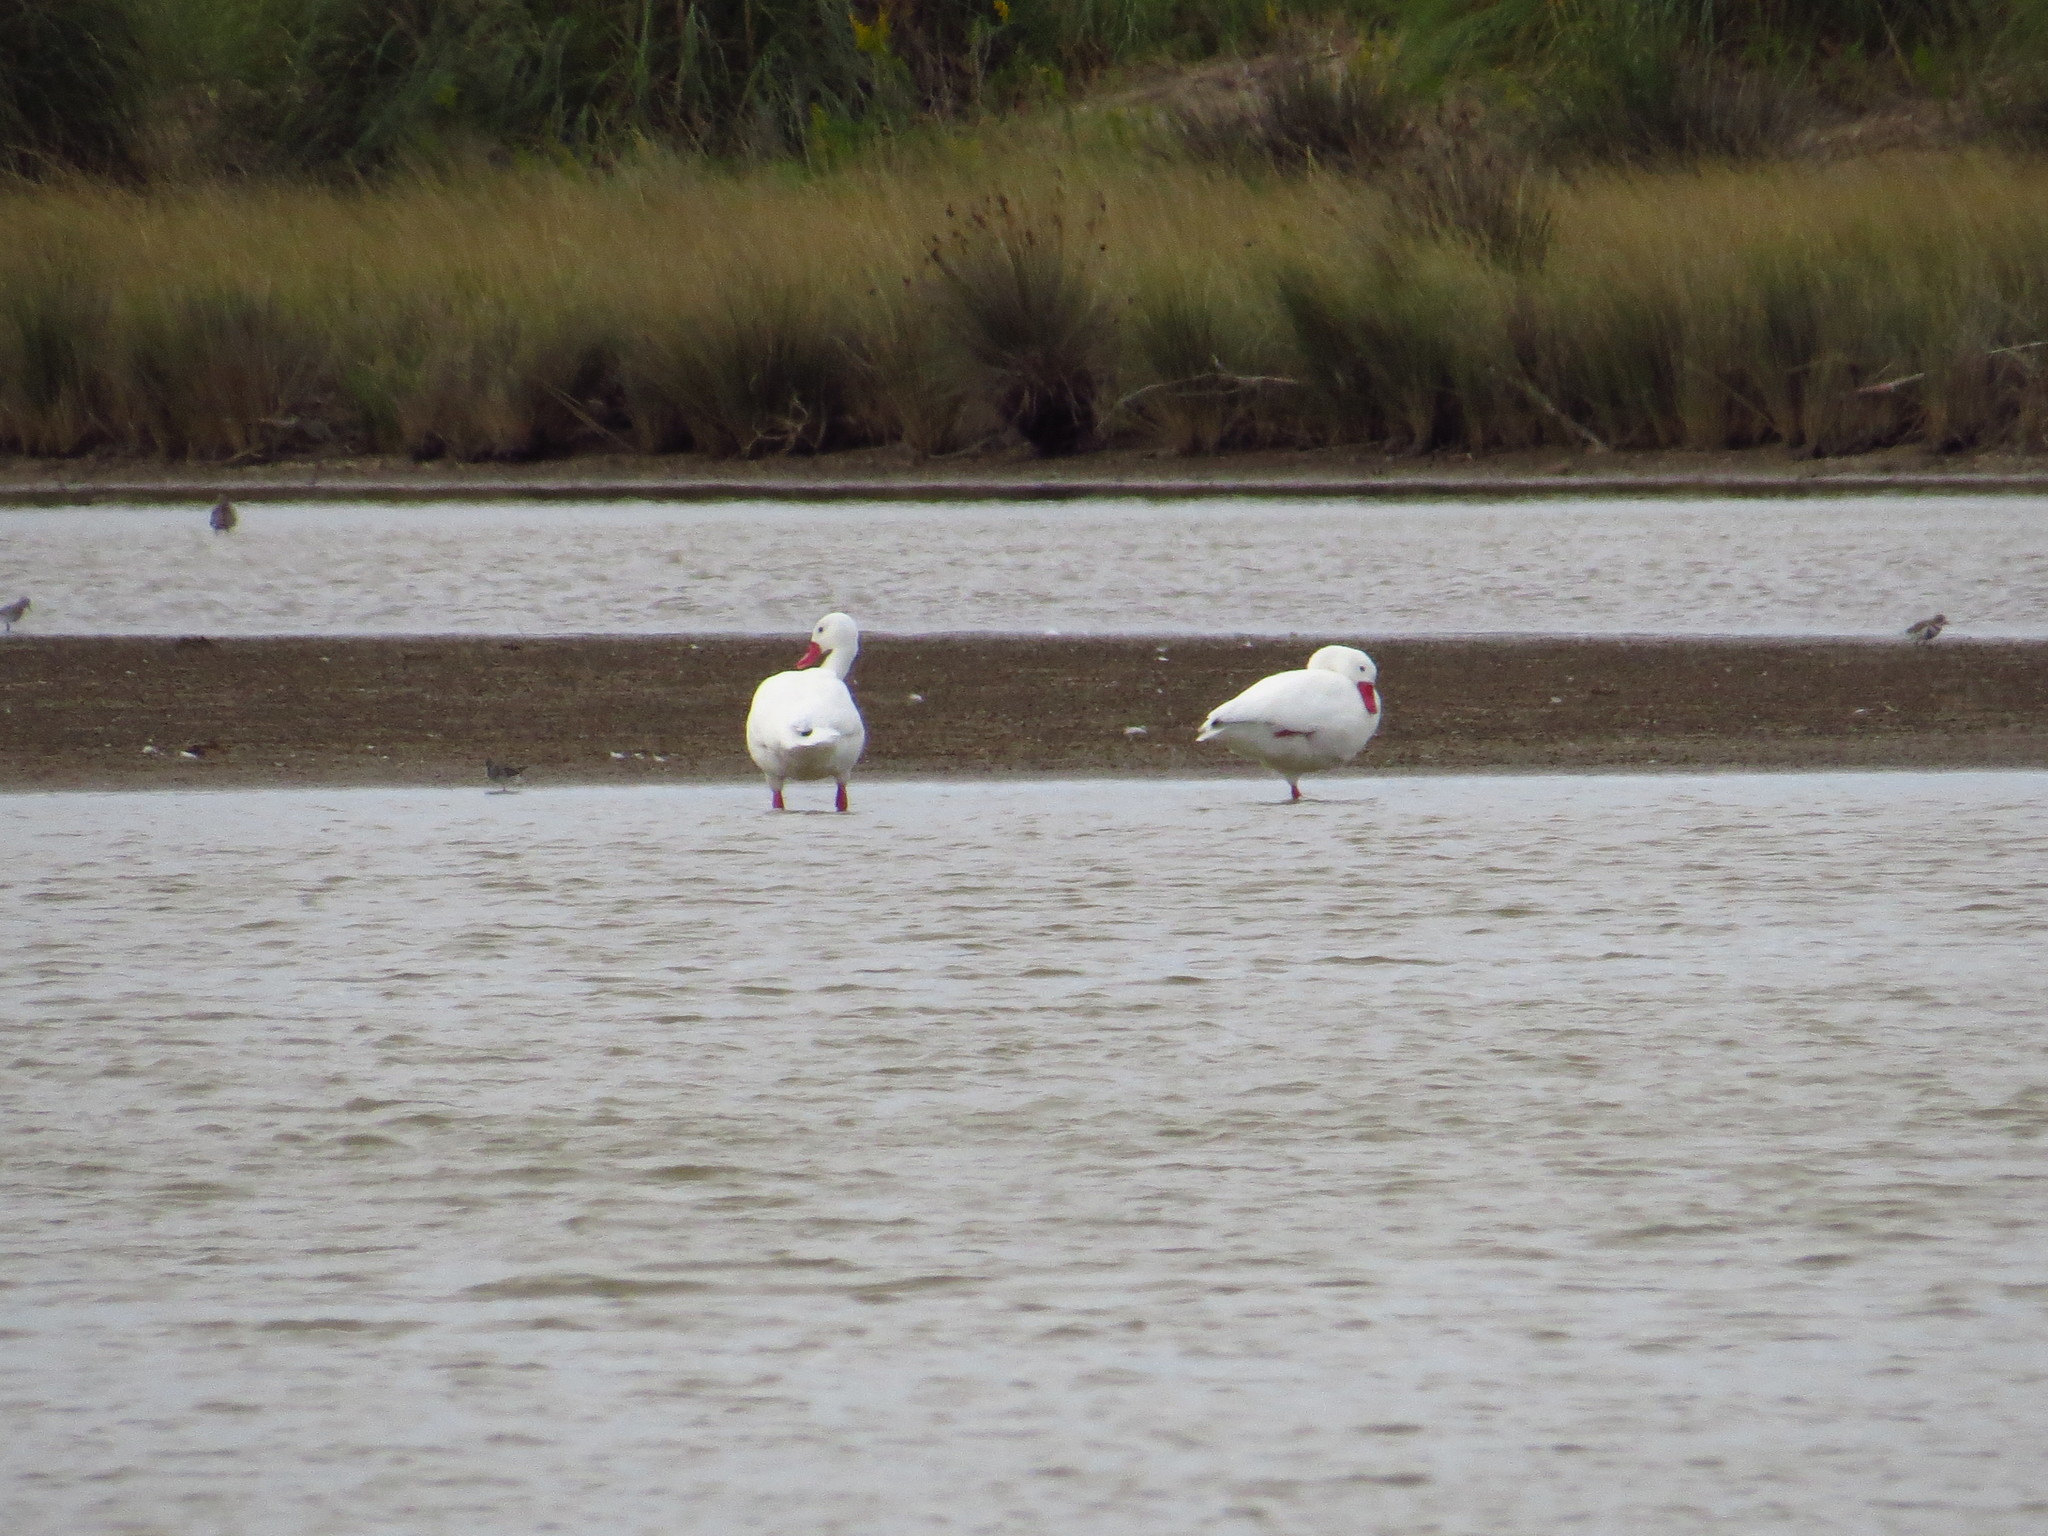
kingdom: Animalia
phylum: Chordata
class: Aves
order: Anseriformes
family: Anatidae
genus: Coscoroba
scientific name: Coscoroba coscoroba
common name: Coscoroba swan
